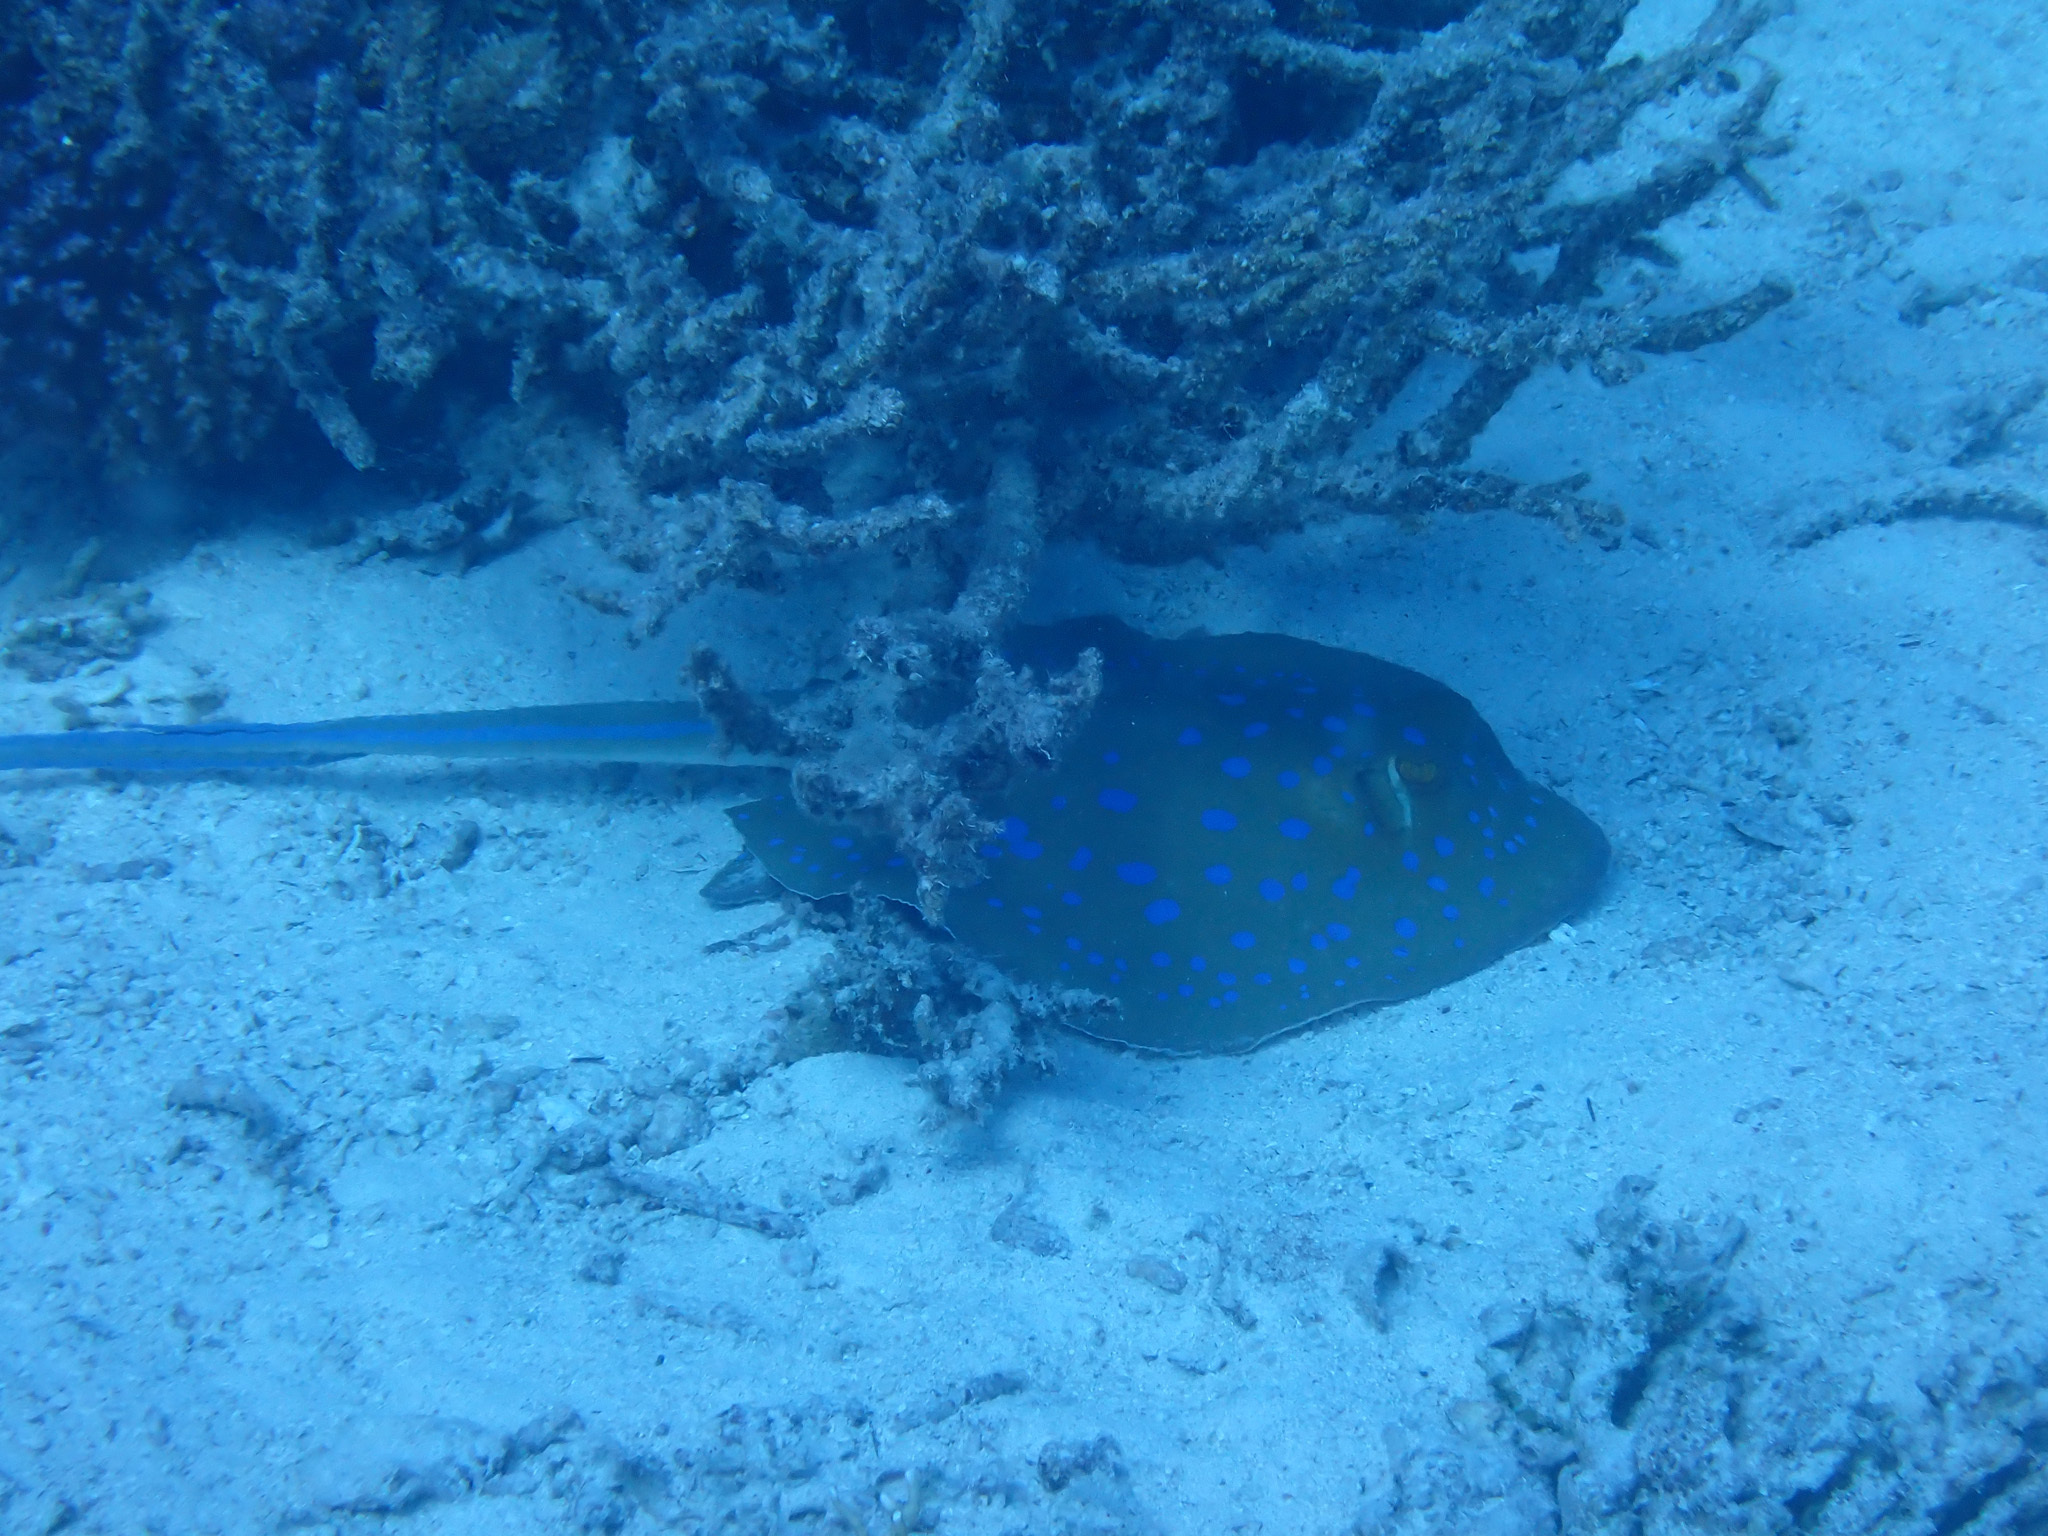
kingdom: Animalia
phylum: Chordata
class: Elasmobranchii
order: Myliobatiformes
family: Dasyatidae
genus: Taeniura
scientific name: Taeniura lymma
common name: Bluespotted ribbontail ray
